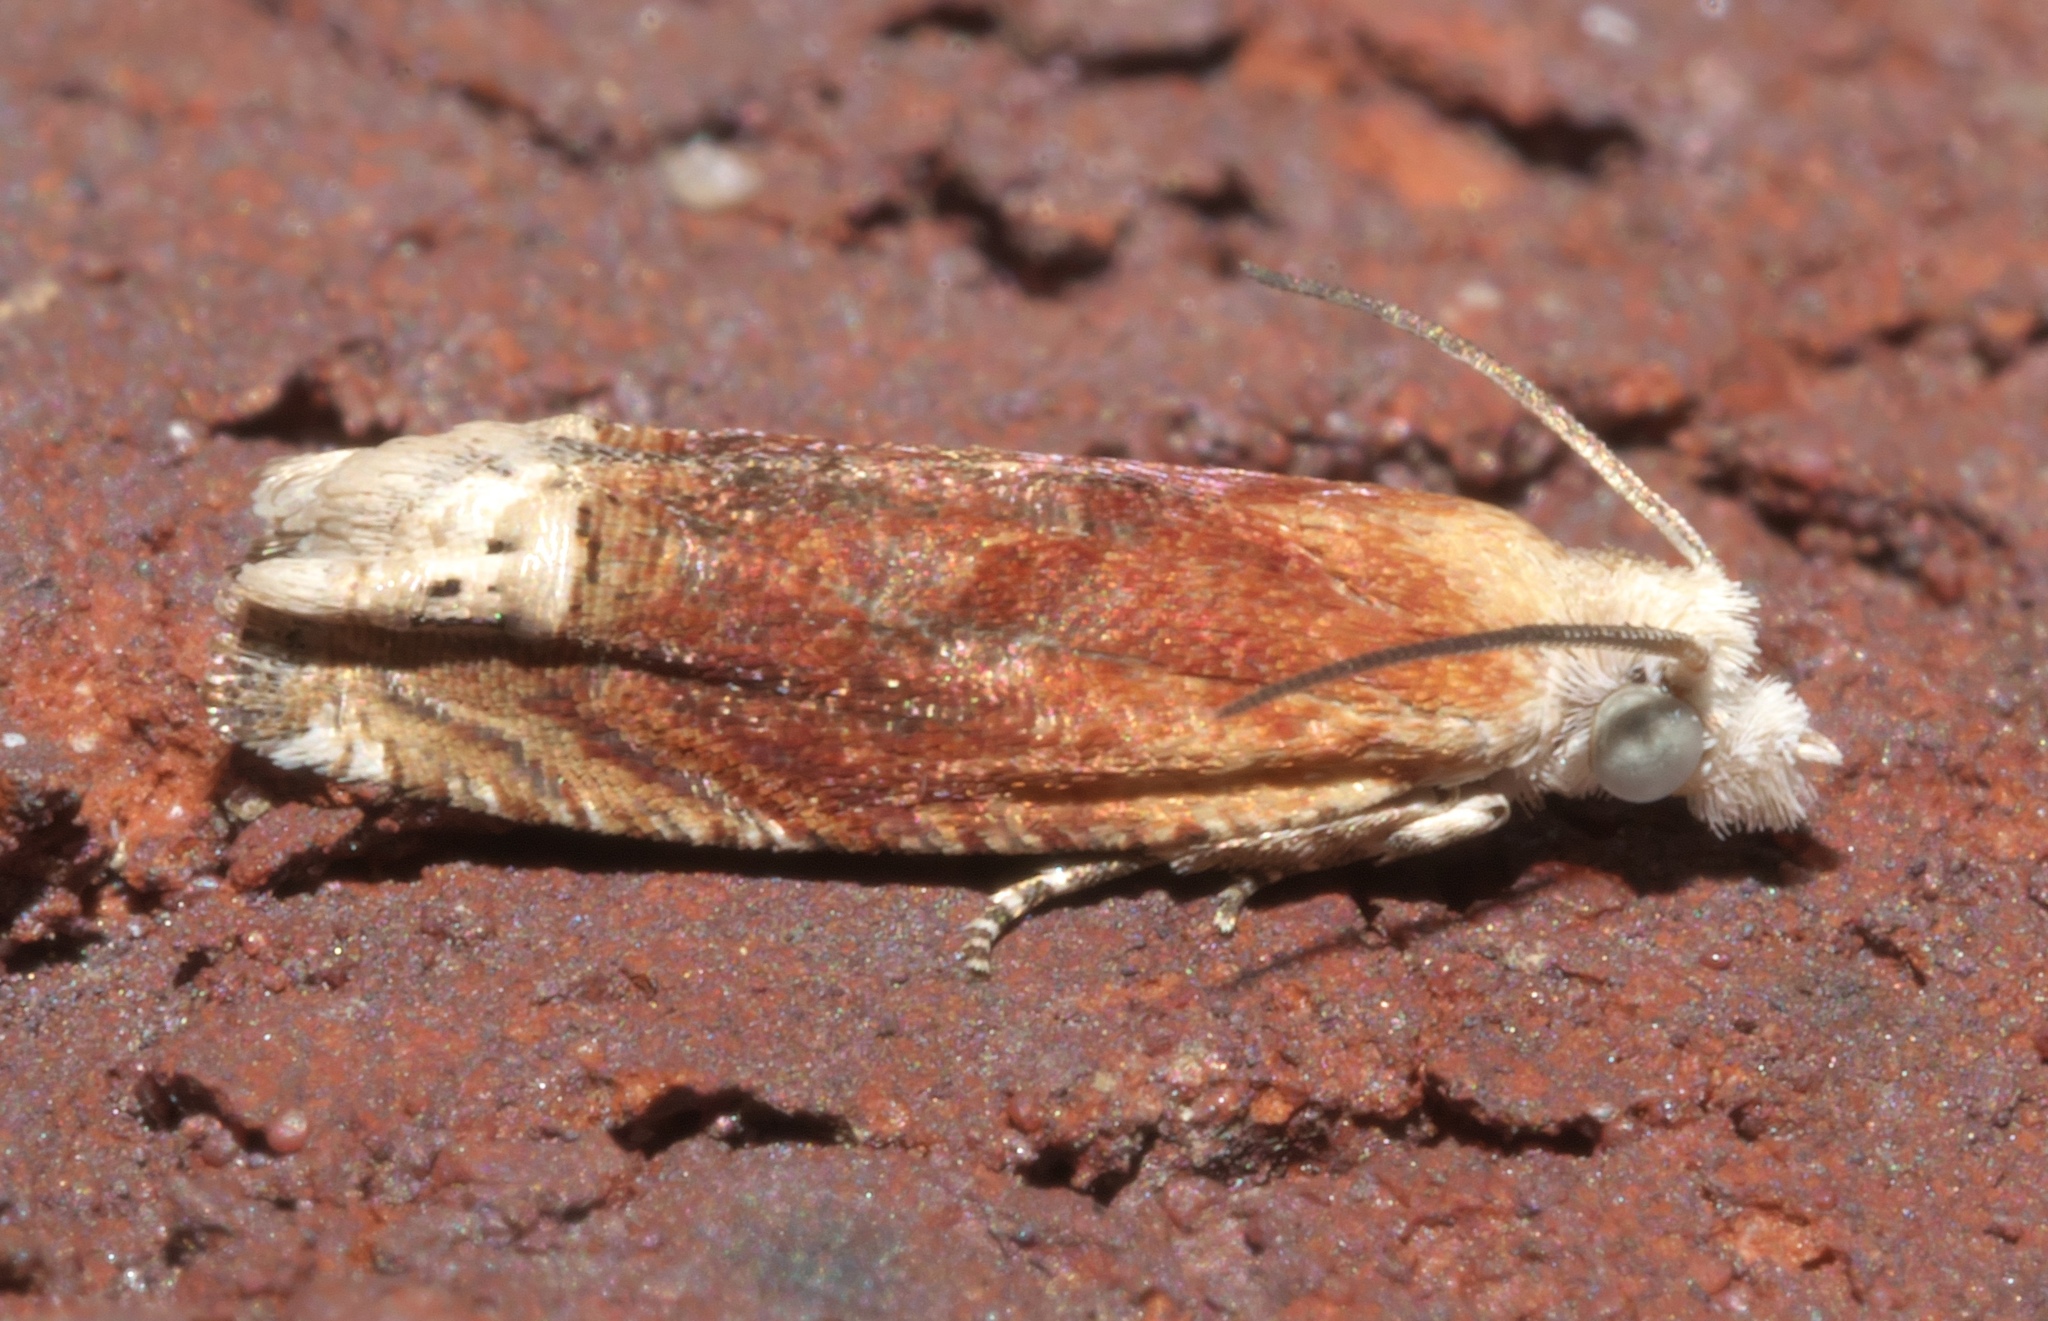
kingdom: Animalia
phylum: Arthropoda
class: Insecta
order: Lepidoptera
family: Tortricidae
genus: Eucosma
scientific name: Eucosma raracana
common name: Reddish eucosma moth
